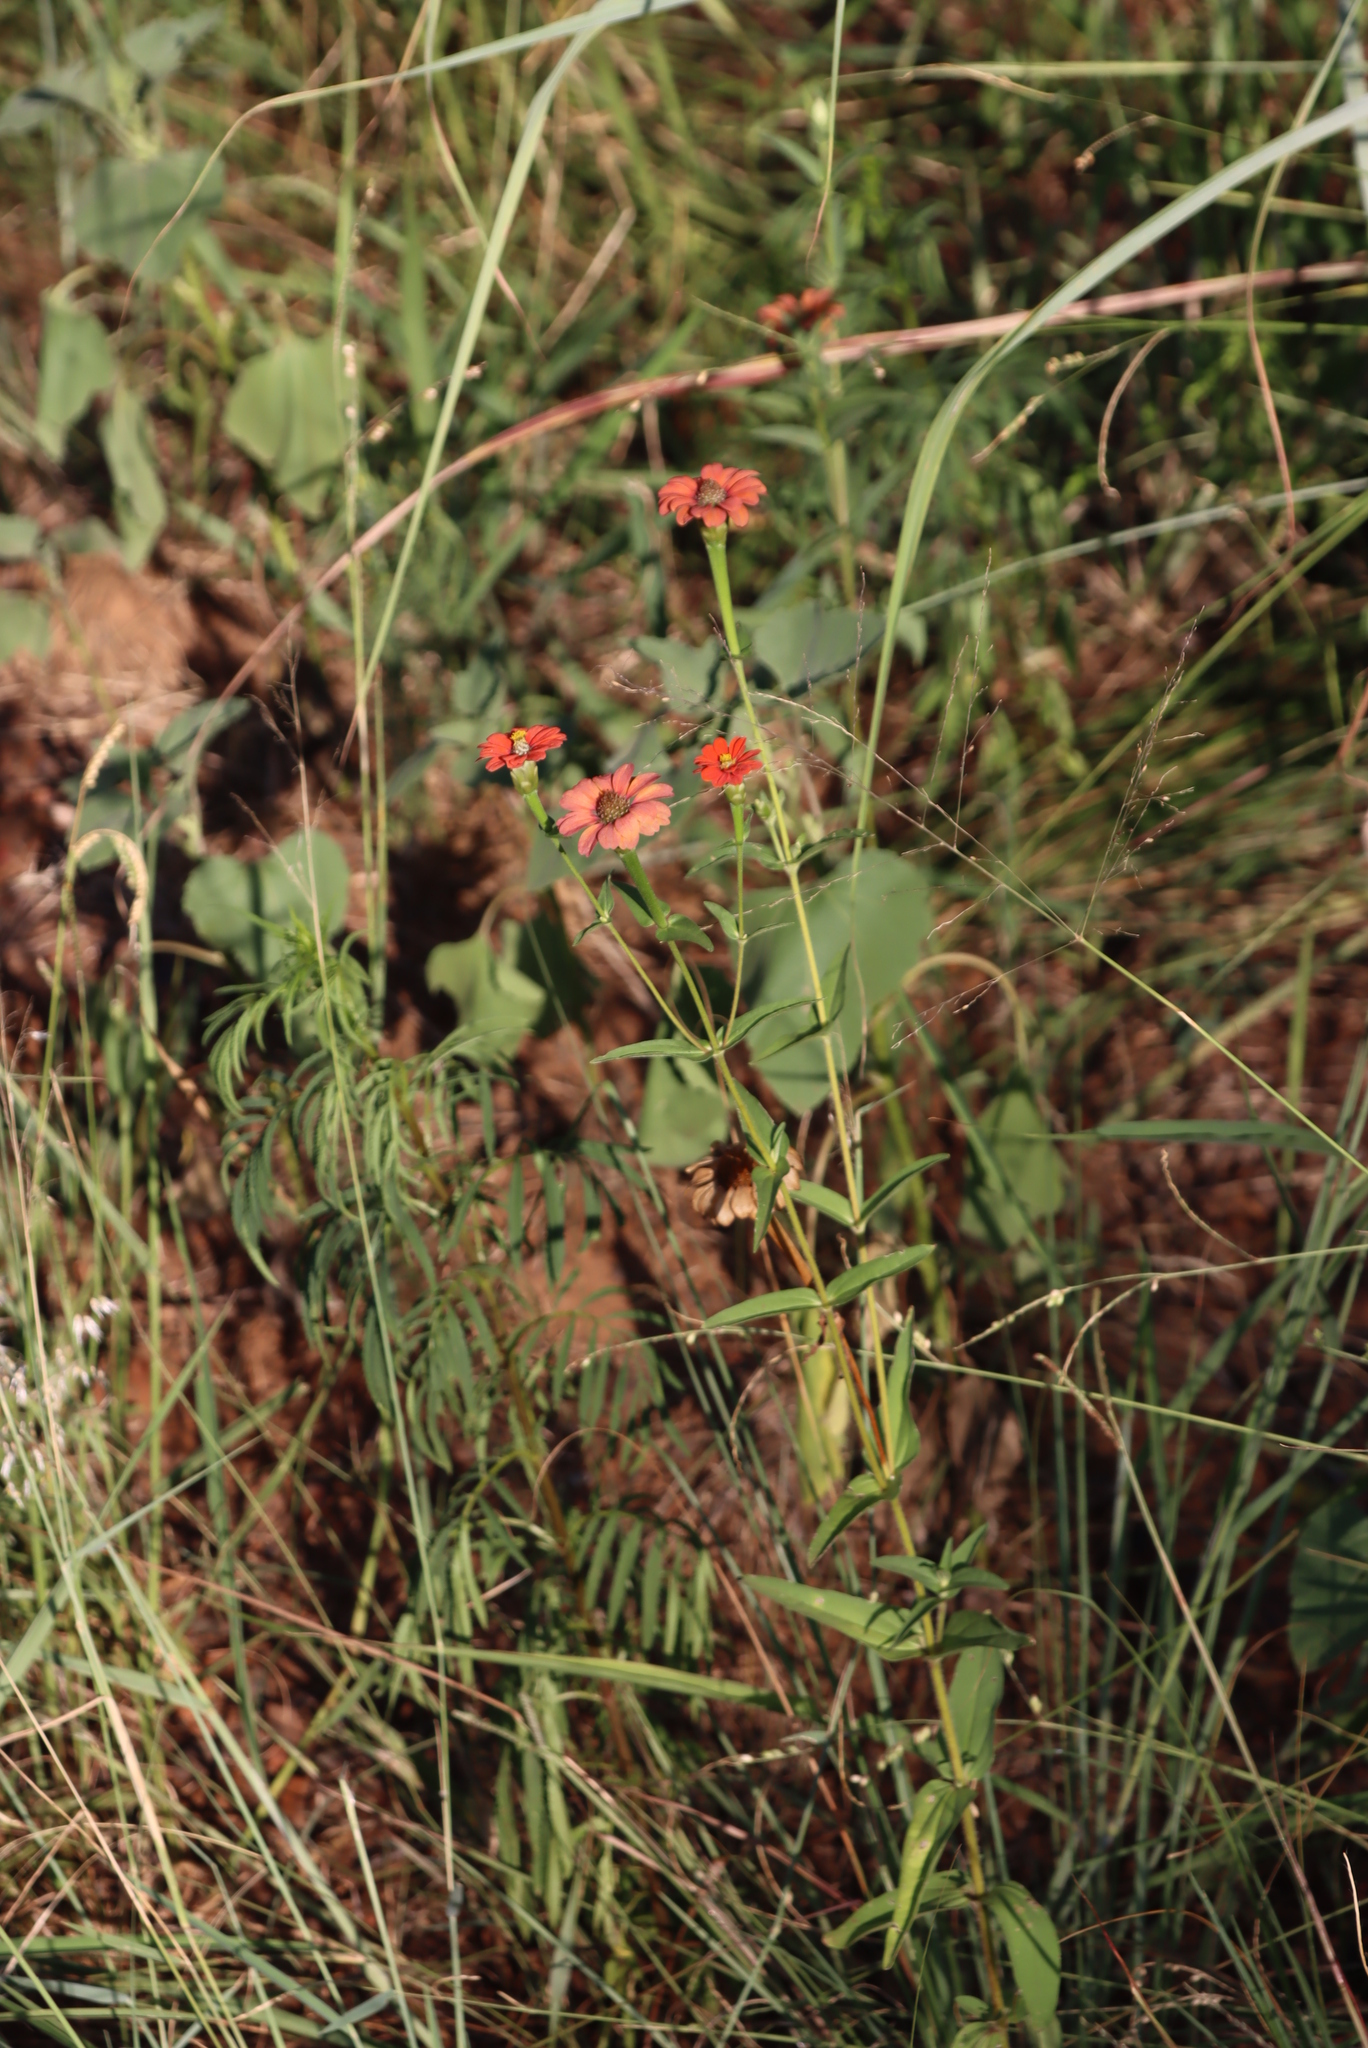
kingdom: Plantae
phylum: Tracheophyta
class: Magnoliopsida
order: Asterales
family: Asteraceae
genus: Zinnia
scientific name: Zinnia peruviana
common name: Peruvian zinnia
